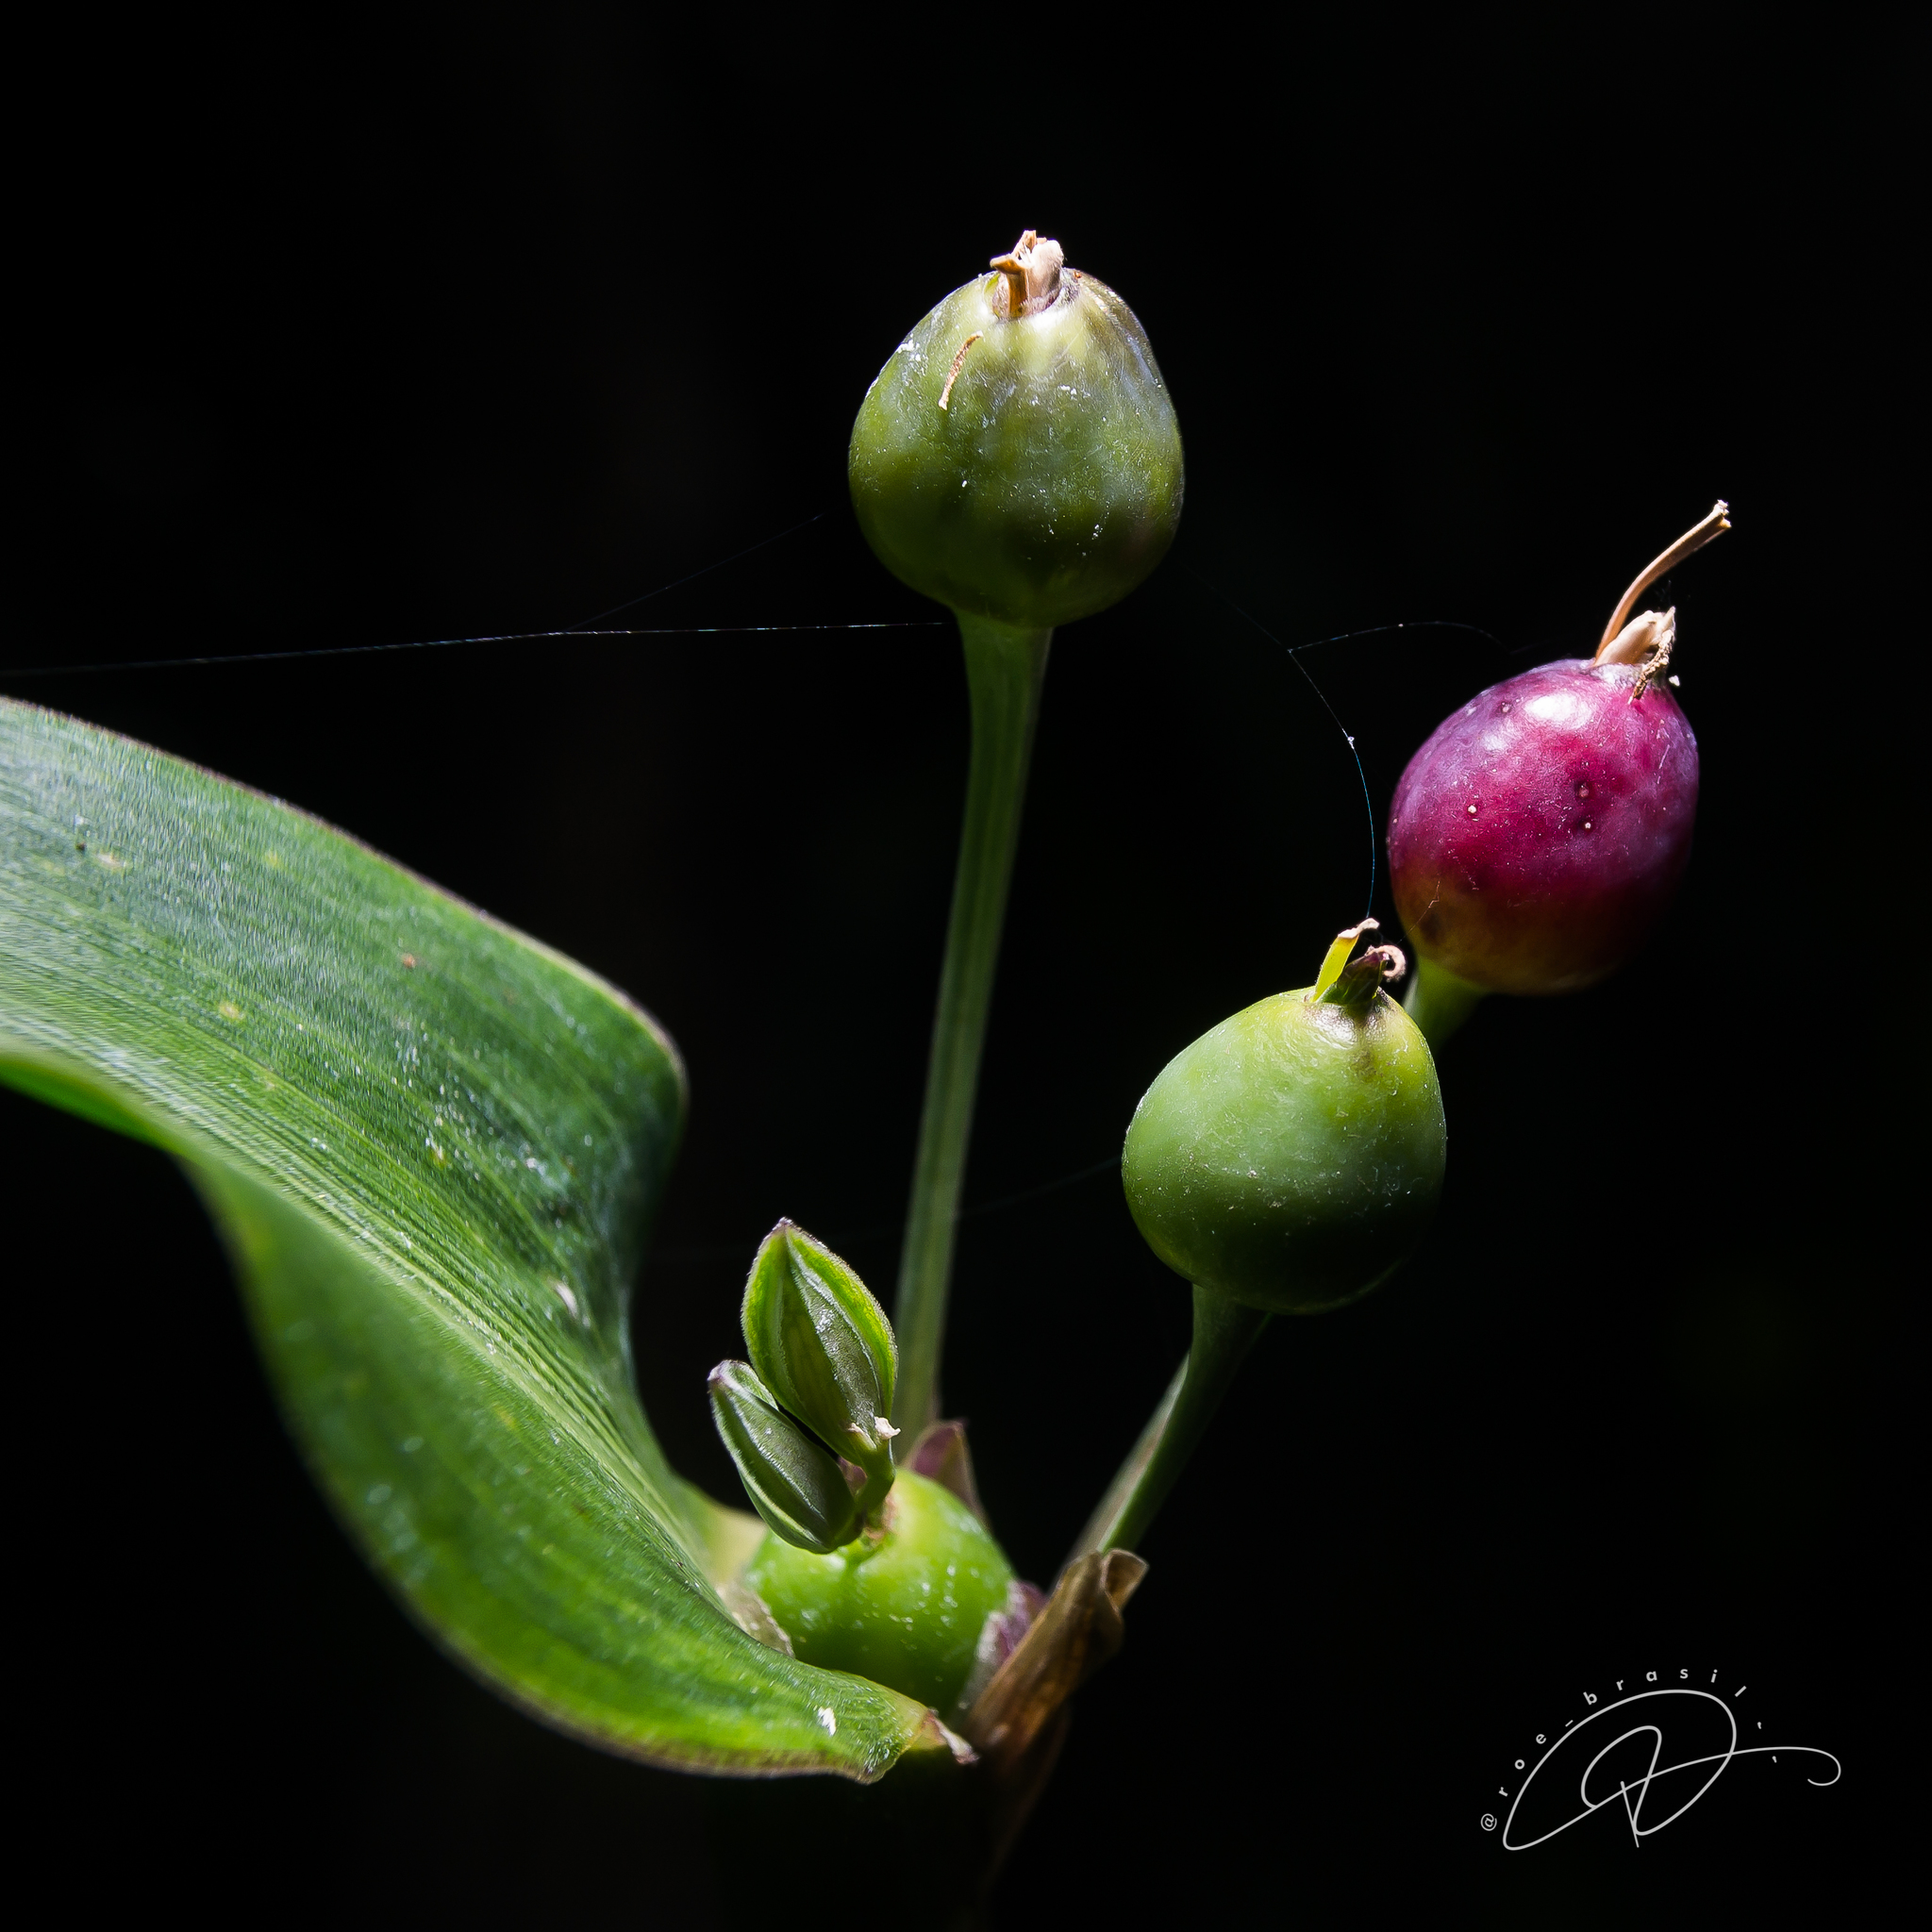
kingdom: Plantae
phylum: Tracheophyta
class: Liliopsida
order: Poales
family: Poaceae
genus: Coix
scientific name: Coix lacryma-jobi
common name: Job's tears
